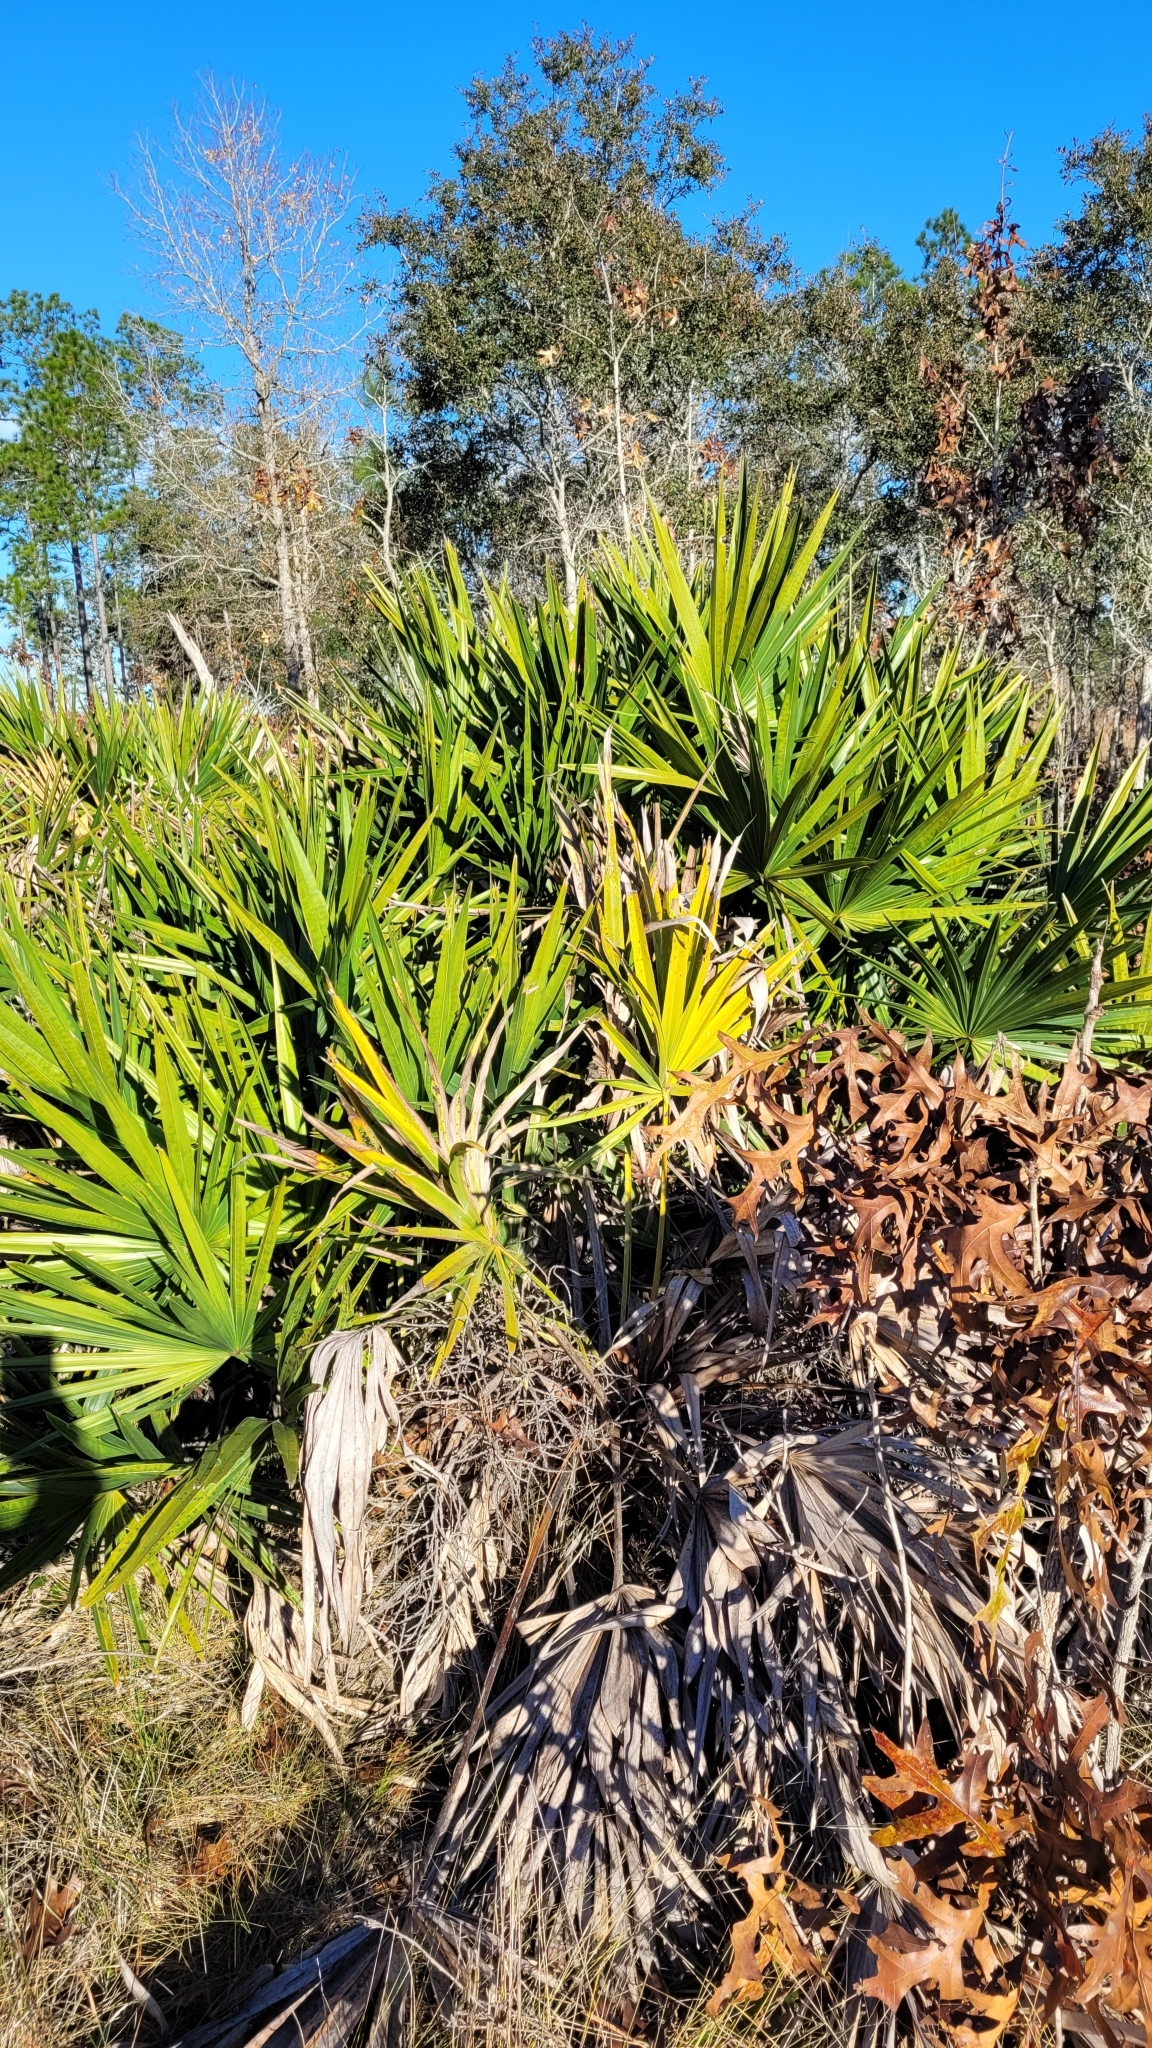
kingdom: Plantae
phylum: Tracheophyta
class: Liliopsida
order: Arecales
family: Arecaceae
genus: Serenoa
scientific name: Serenoa repens
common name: Saw-palmetto
